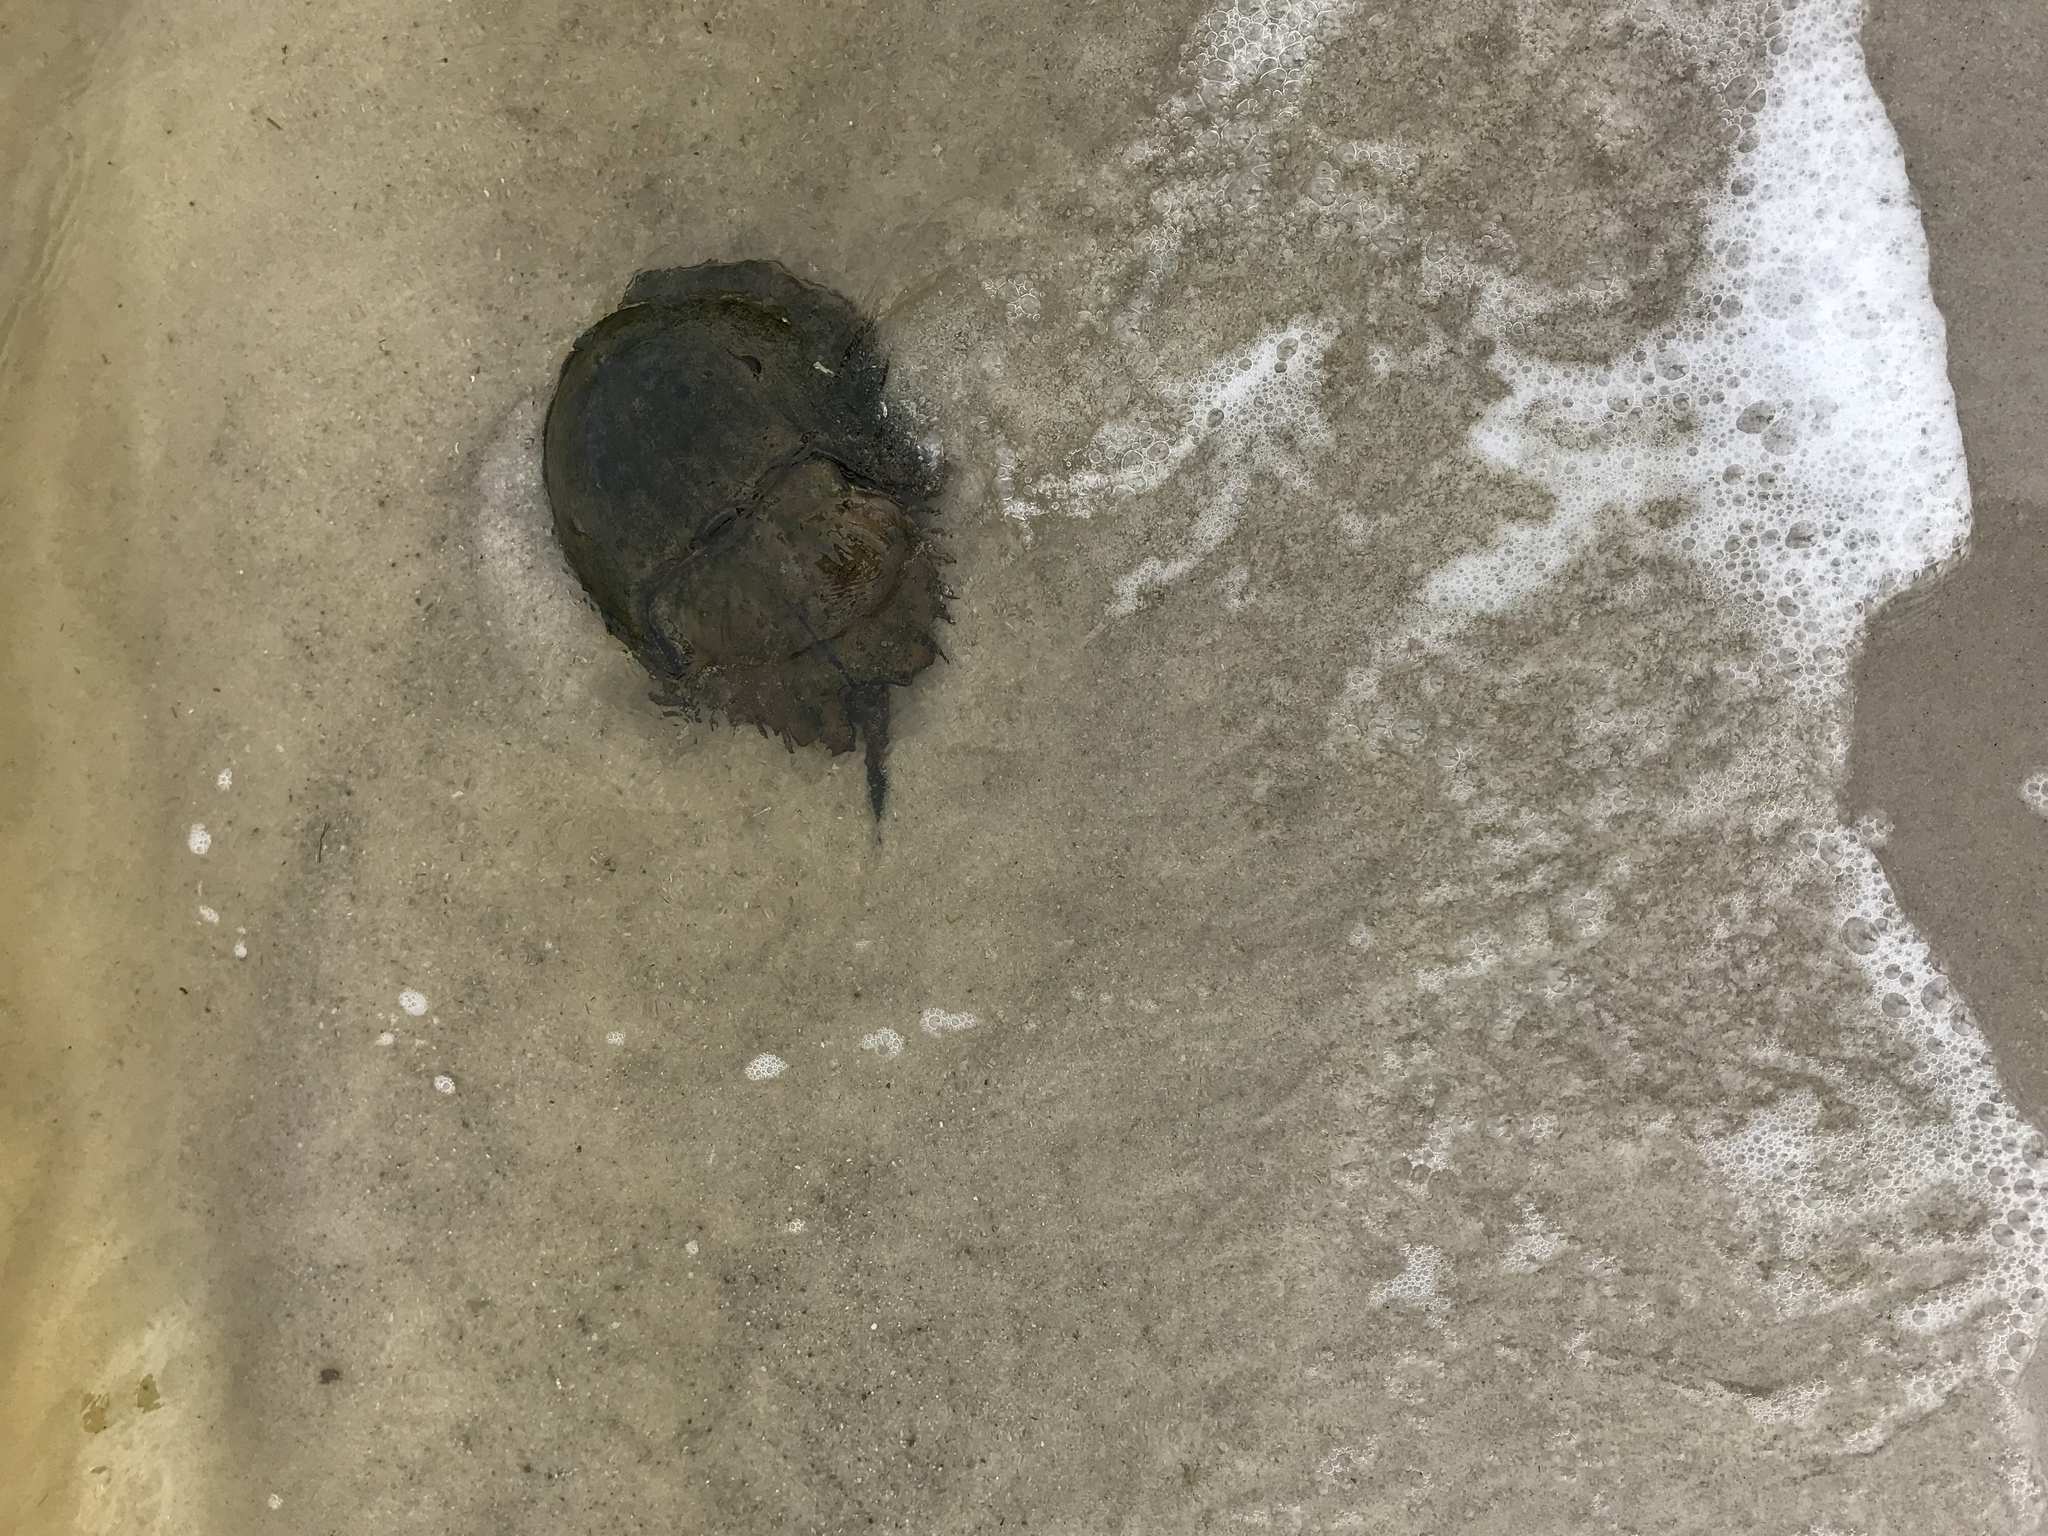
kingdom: Animalia
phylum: Arthropoda
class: Merostomata
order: Xiphosurida
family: Limulidae
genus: Limulus
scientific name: Limulus polyphemus
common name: Horseshoe crab
